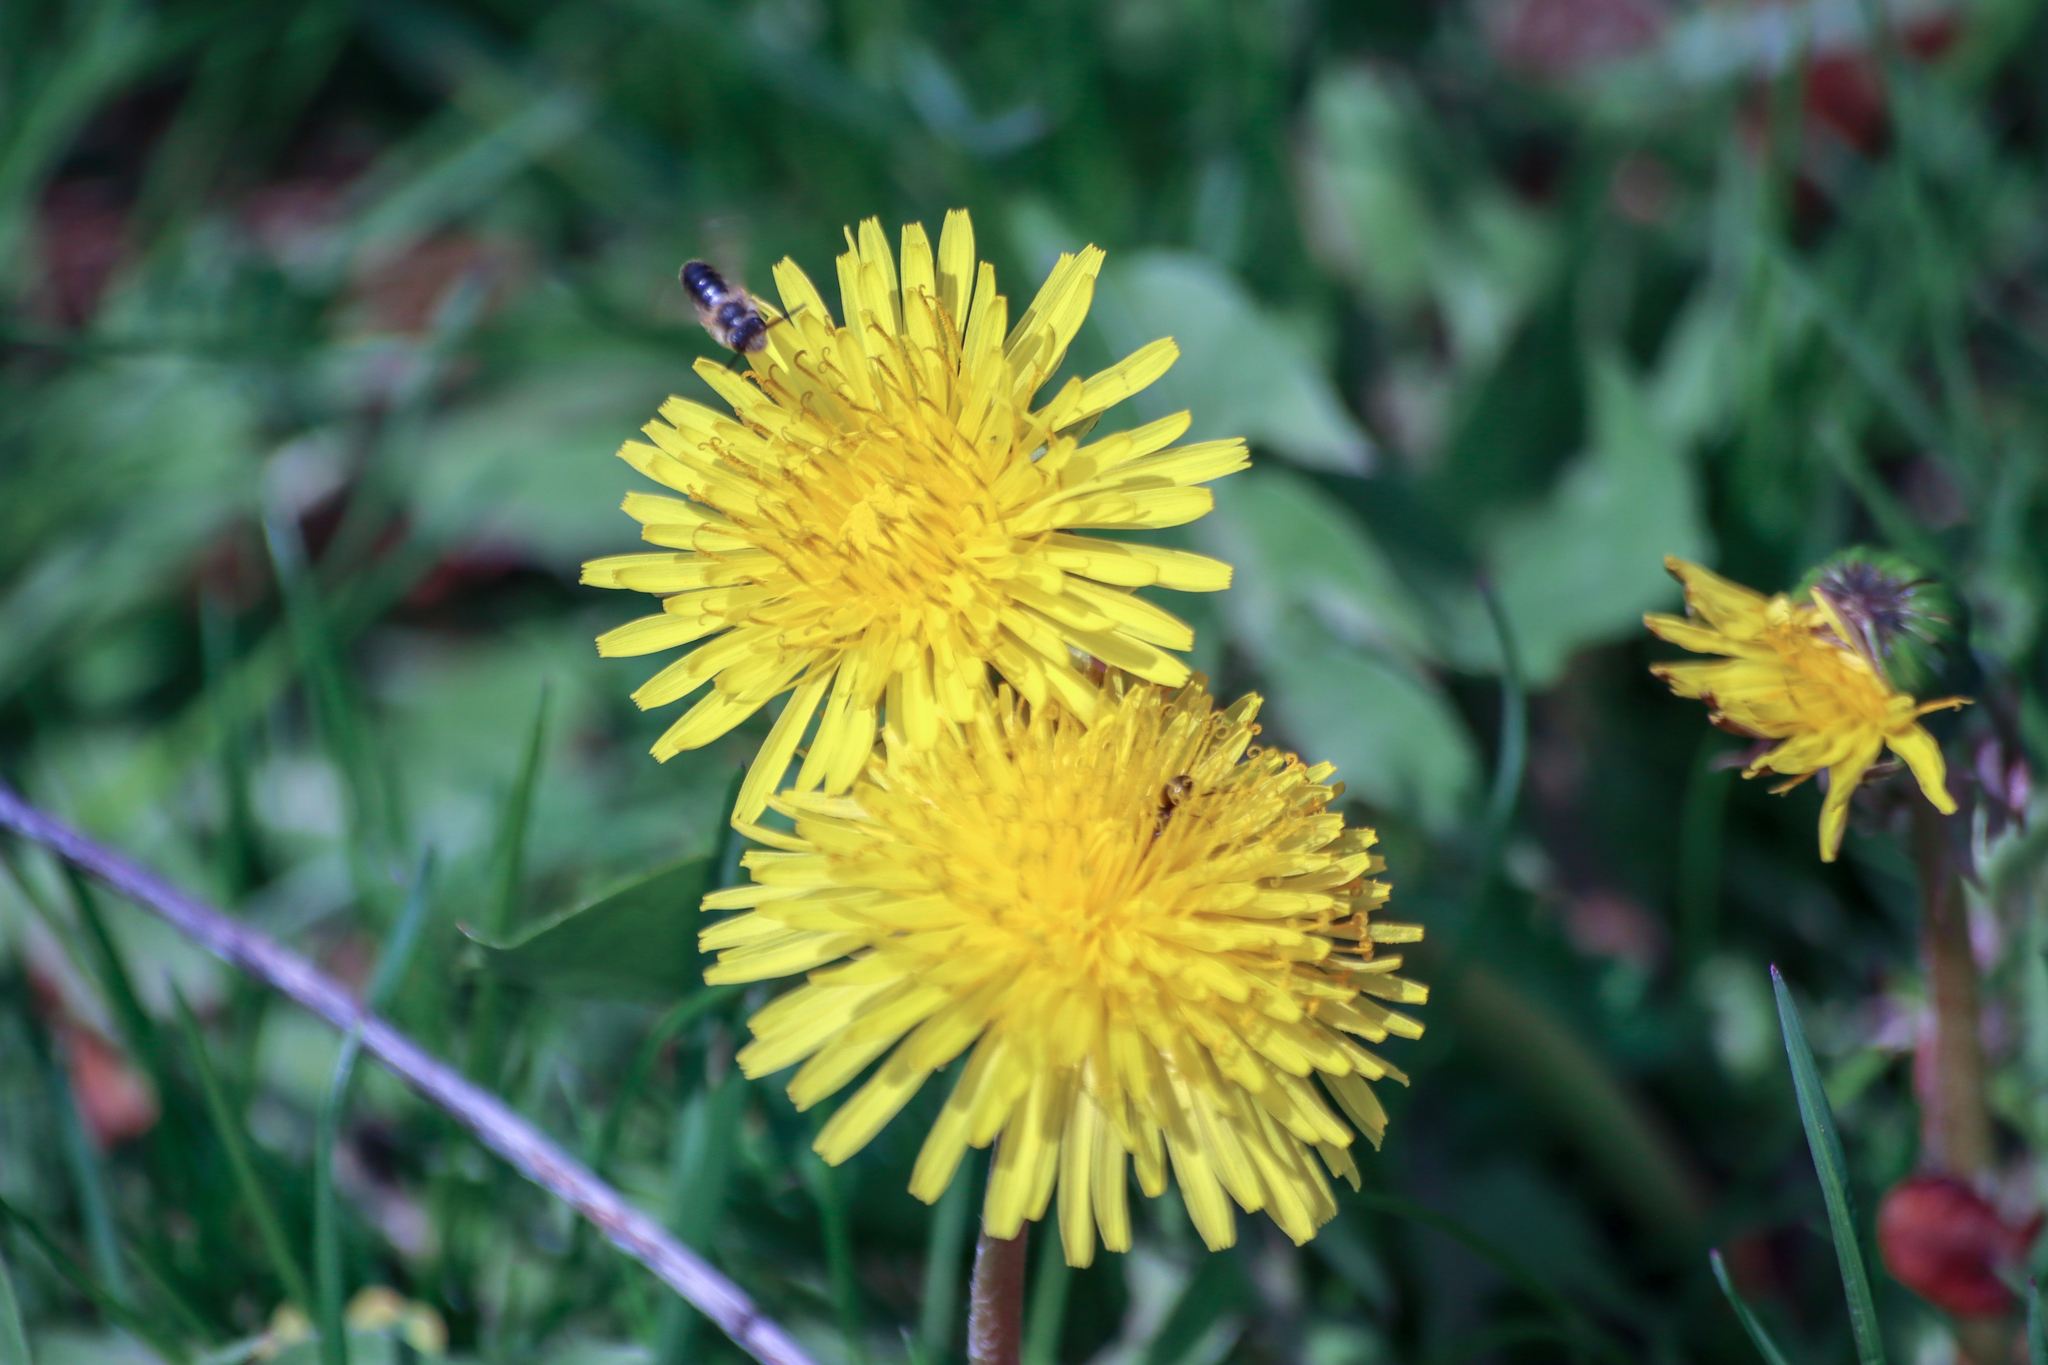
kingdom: Plantae
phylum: Tracheophyta
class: Magnoliopsida
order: Asterales
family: Asteraceae
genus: Taraxacum
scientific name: Taraxacum officinale
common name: Common dandelion
